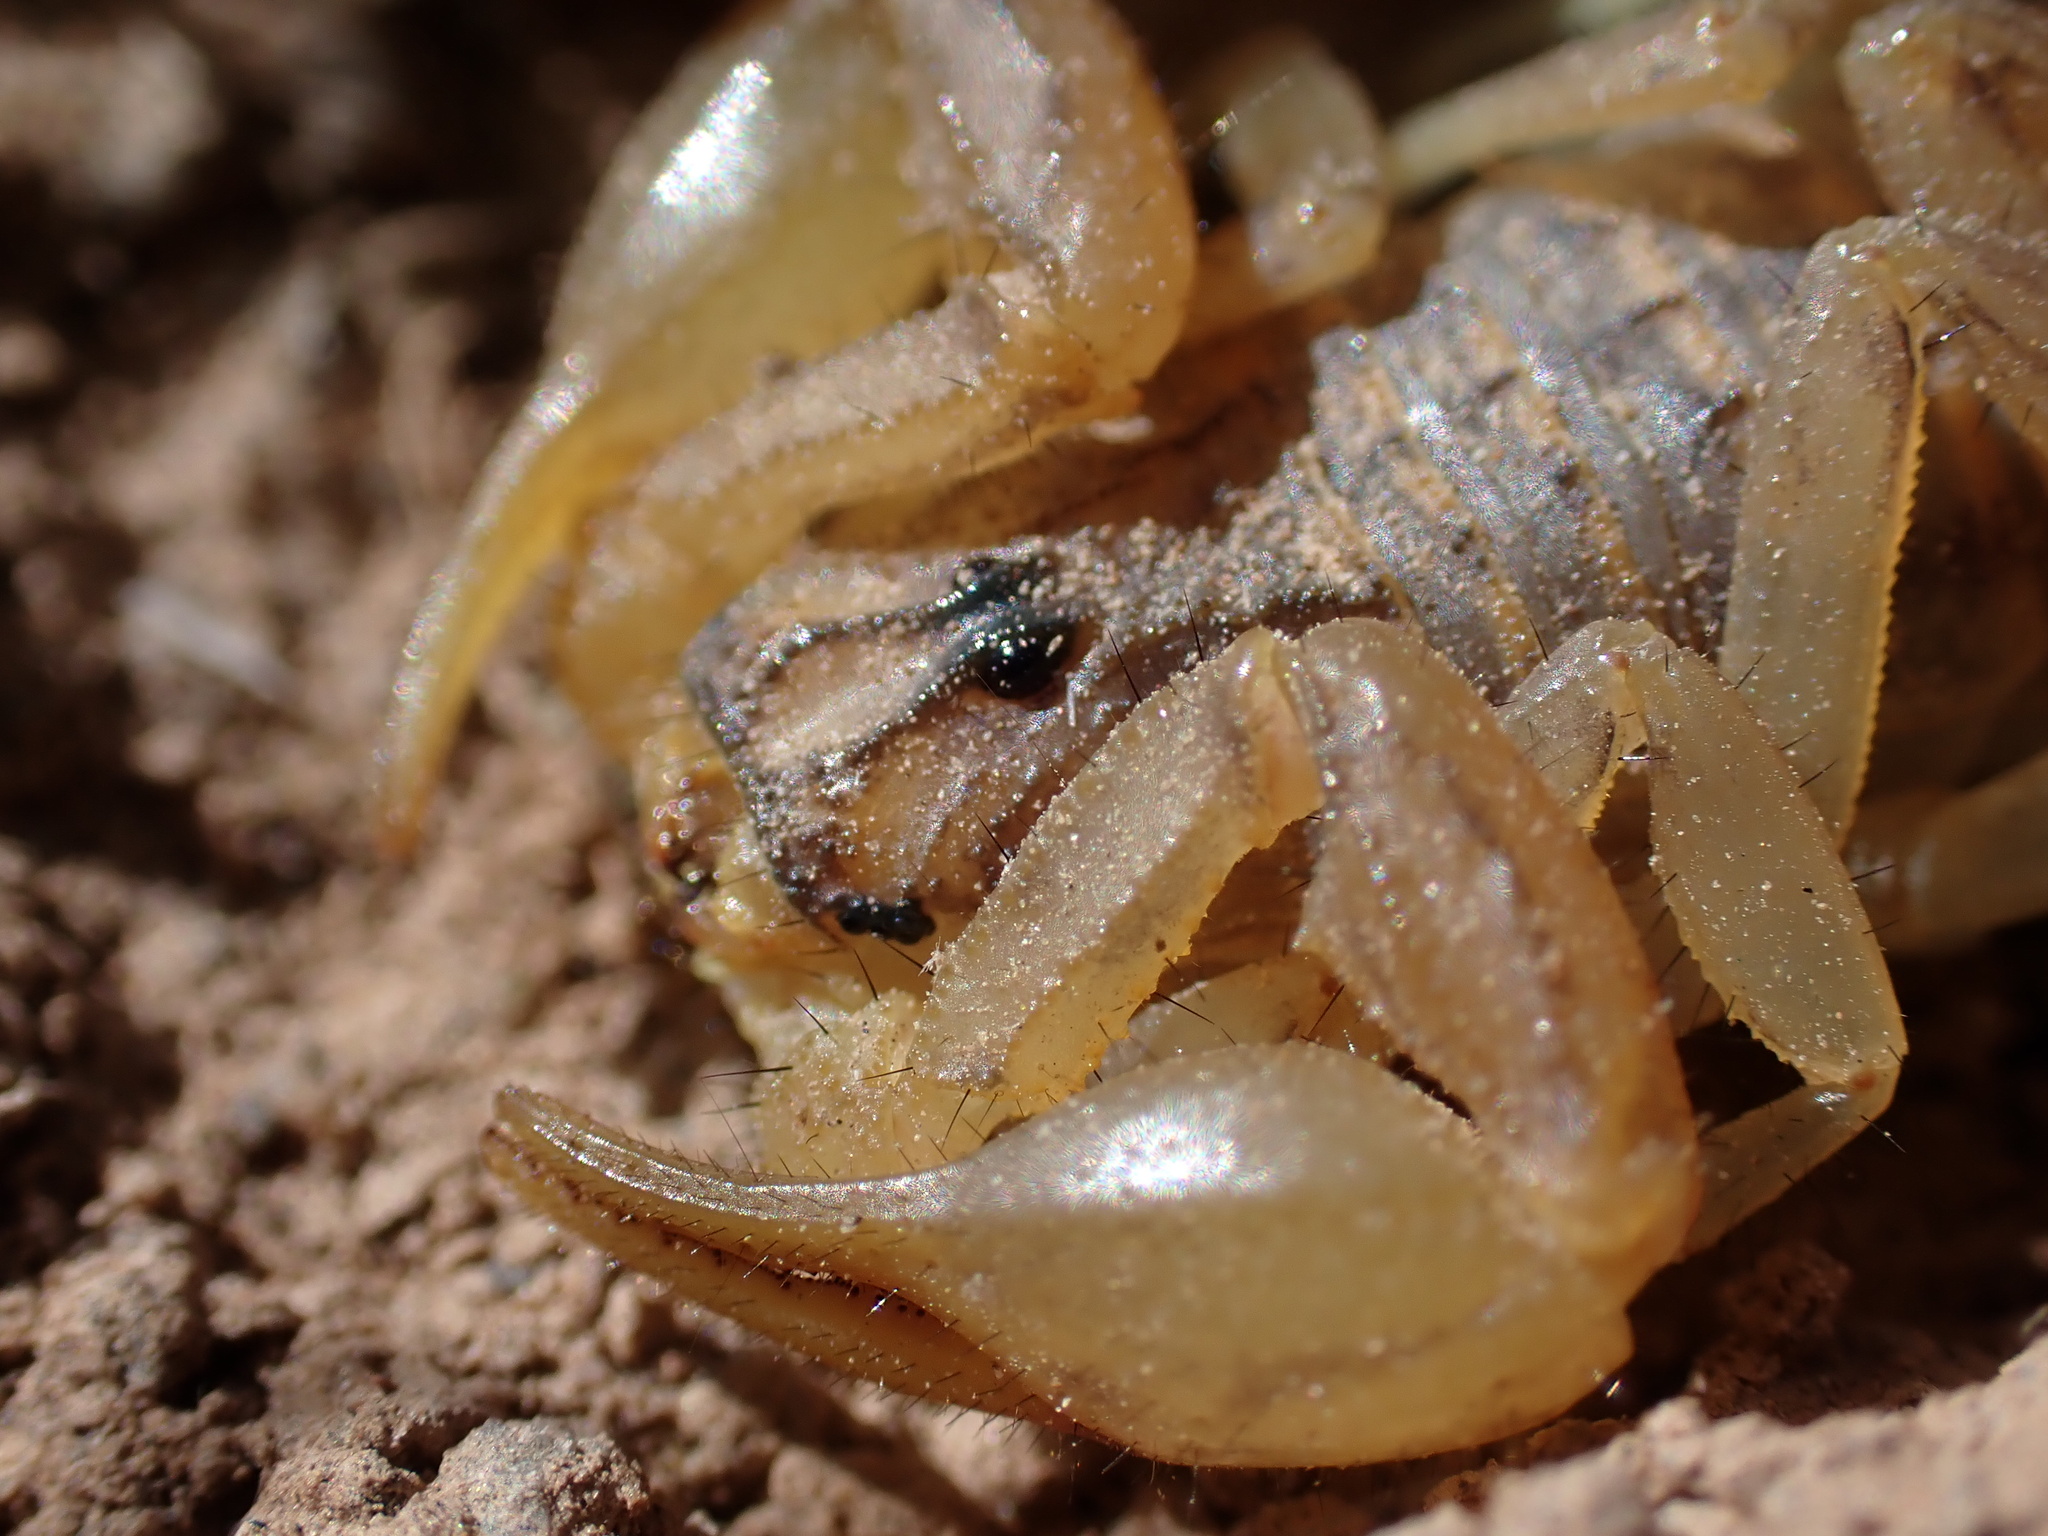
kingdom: Animalia
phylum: Arthropoda
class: Arachnida
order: Scorpiones
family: Buthidae
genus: Mesobuthus
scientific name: Mesobuthus afghanus
